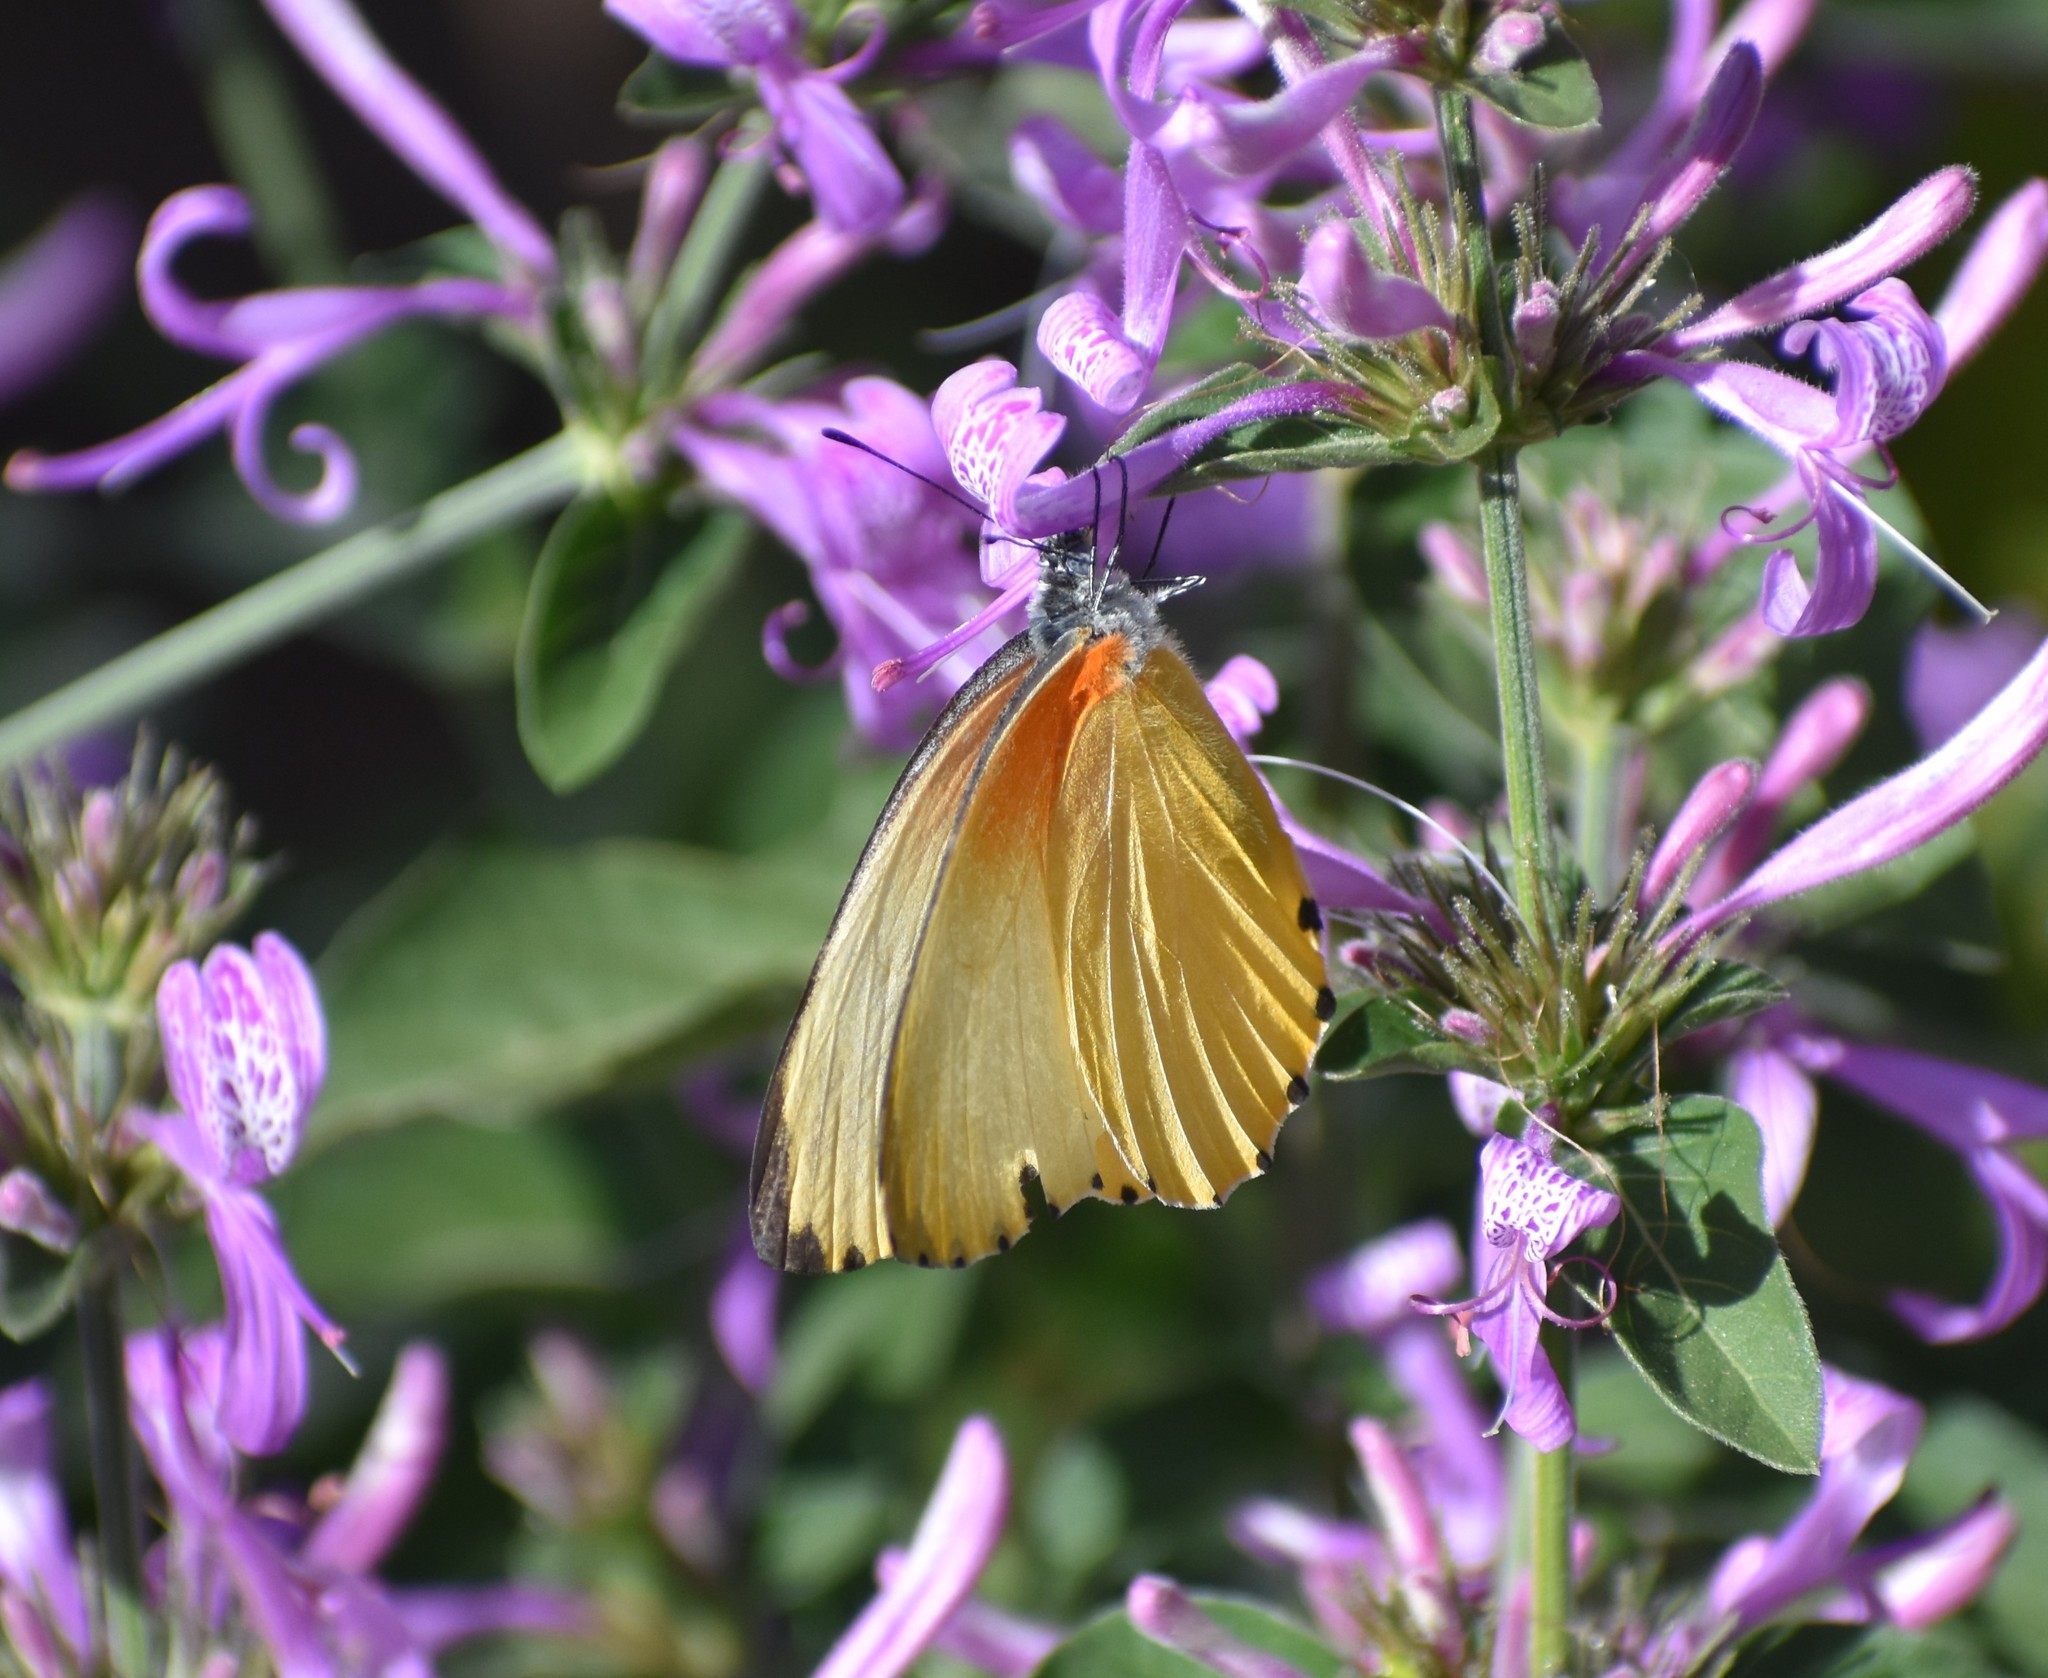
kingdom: Animalia
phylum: Arthropoda
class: Insecta
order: Lepidoptera
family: Pieridae
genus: Mylothris
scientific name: Mylothris agathina
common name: Eastern dotted border
